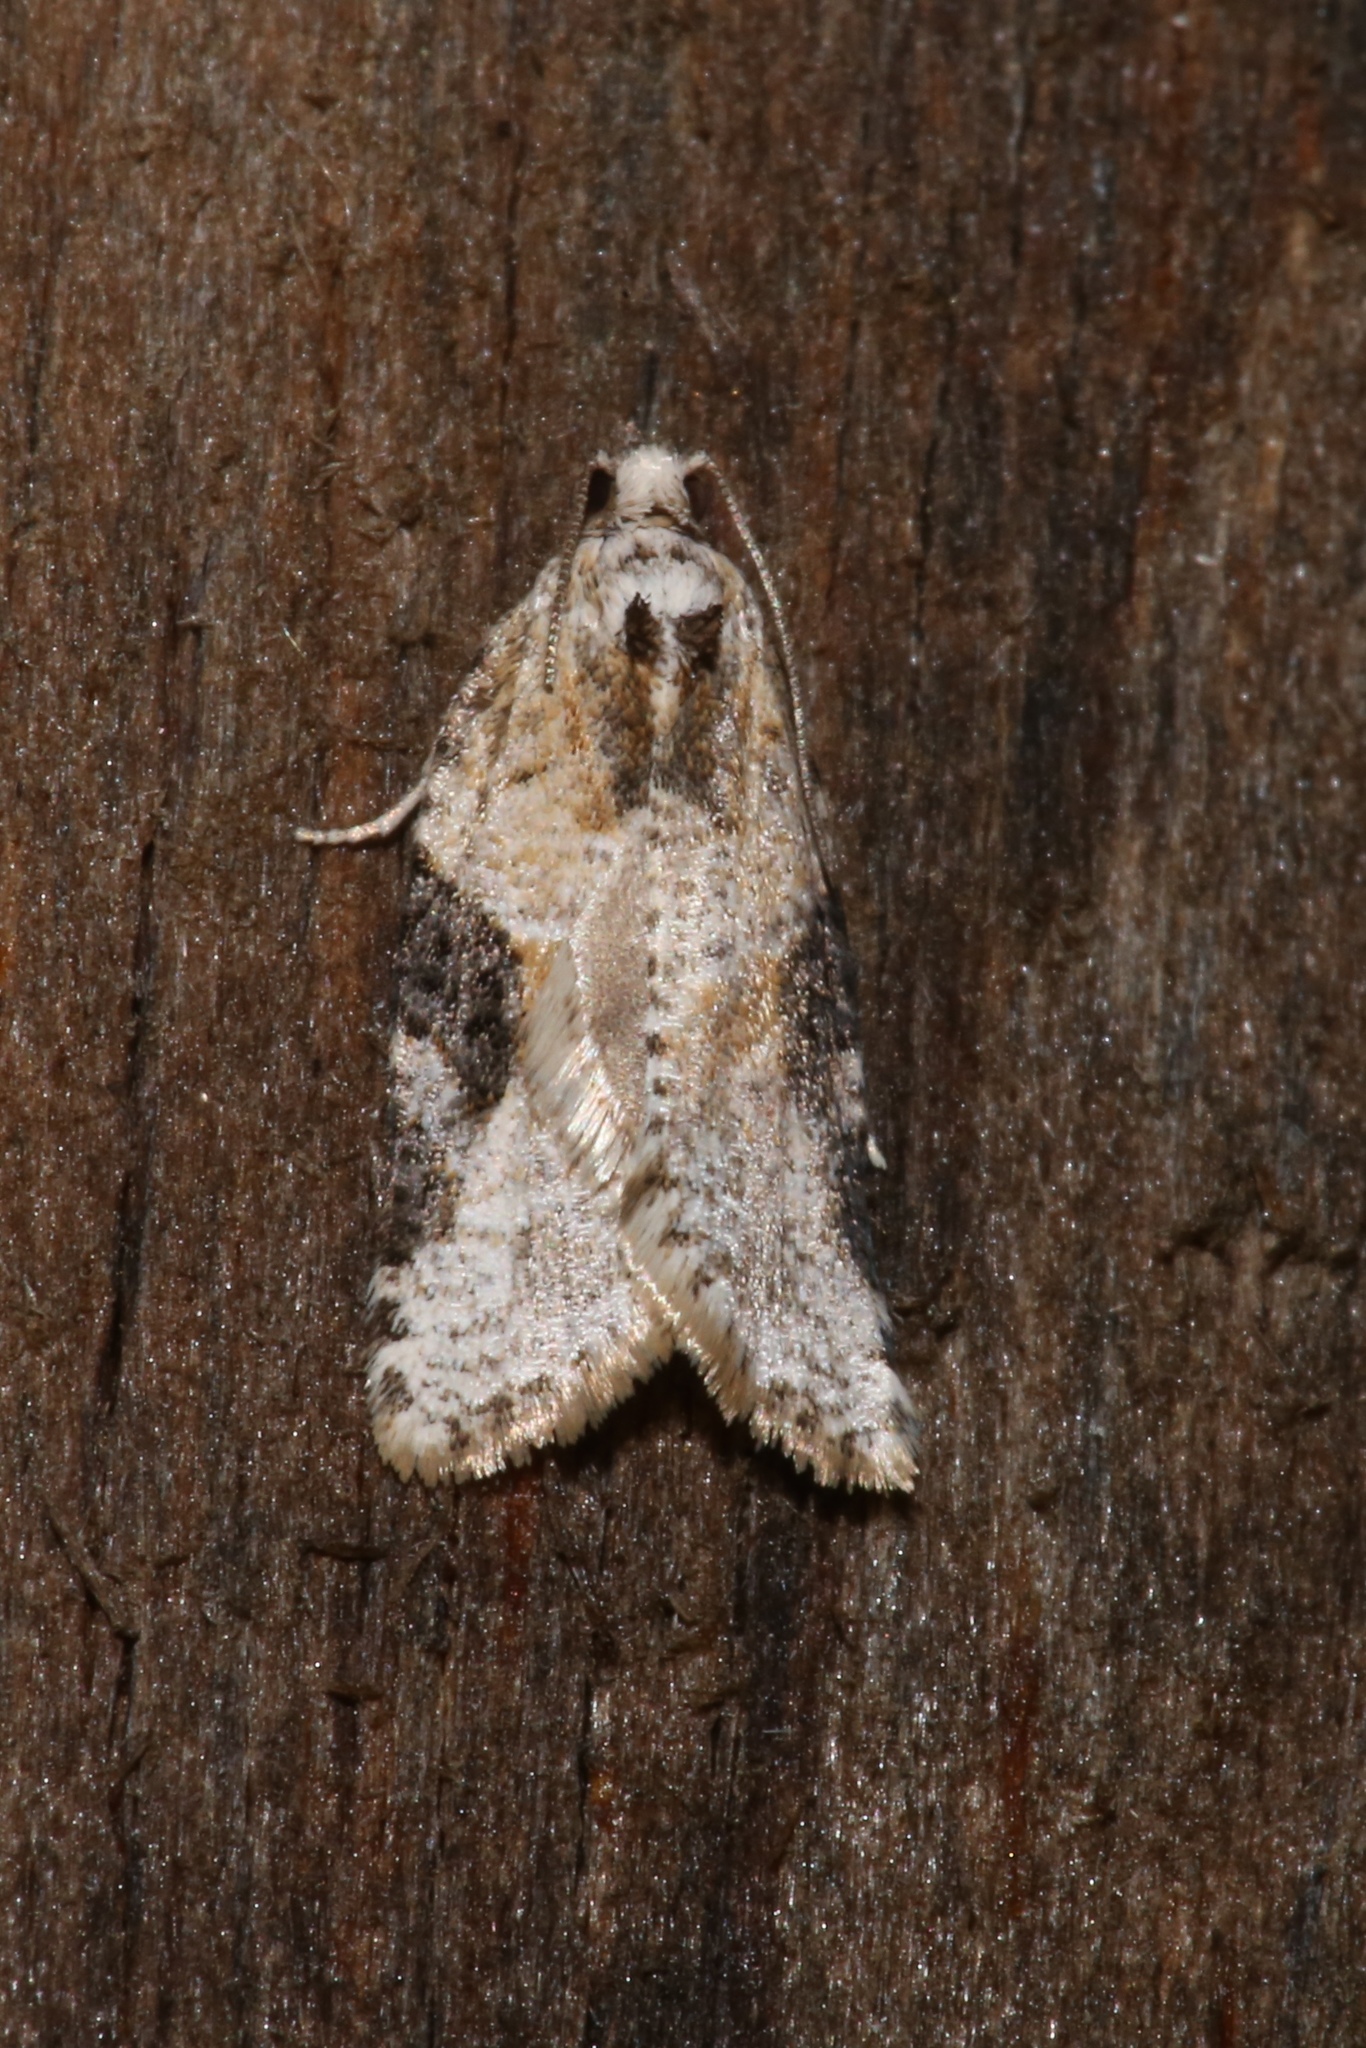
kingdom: Animalia
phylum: Arthropoda
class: Insecta
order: Lepidoptera
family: Tortricidae
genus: Argyrotaenia
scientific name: Argyrotaenia mariana
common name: Gray-banded leafroller moth
